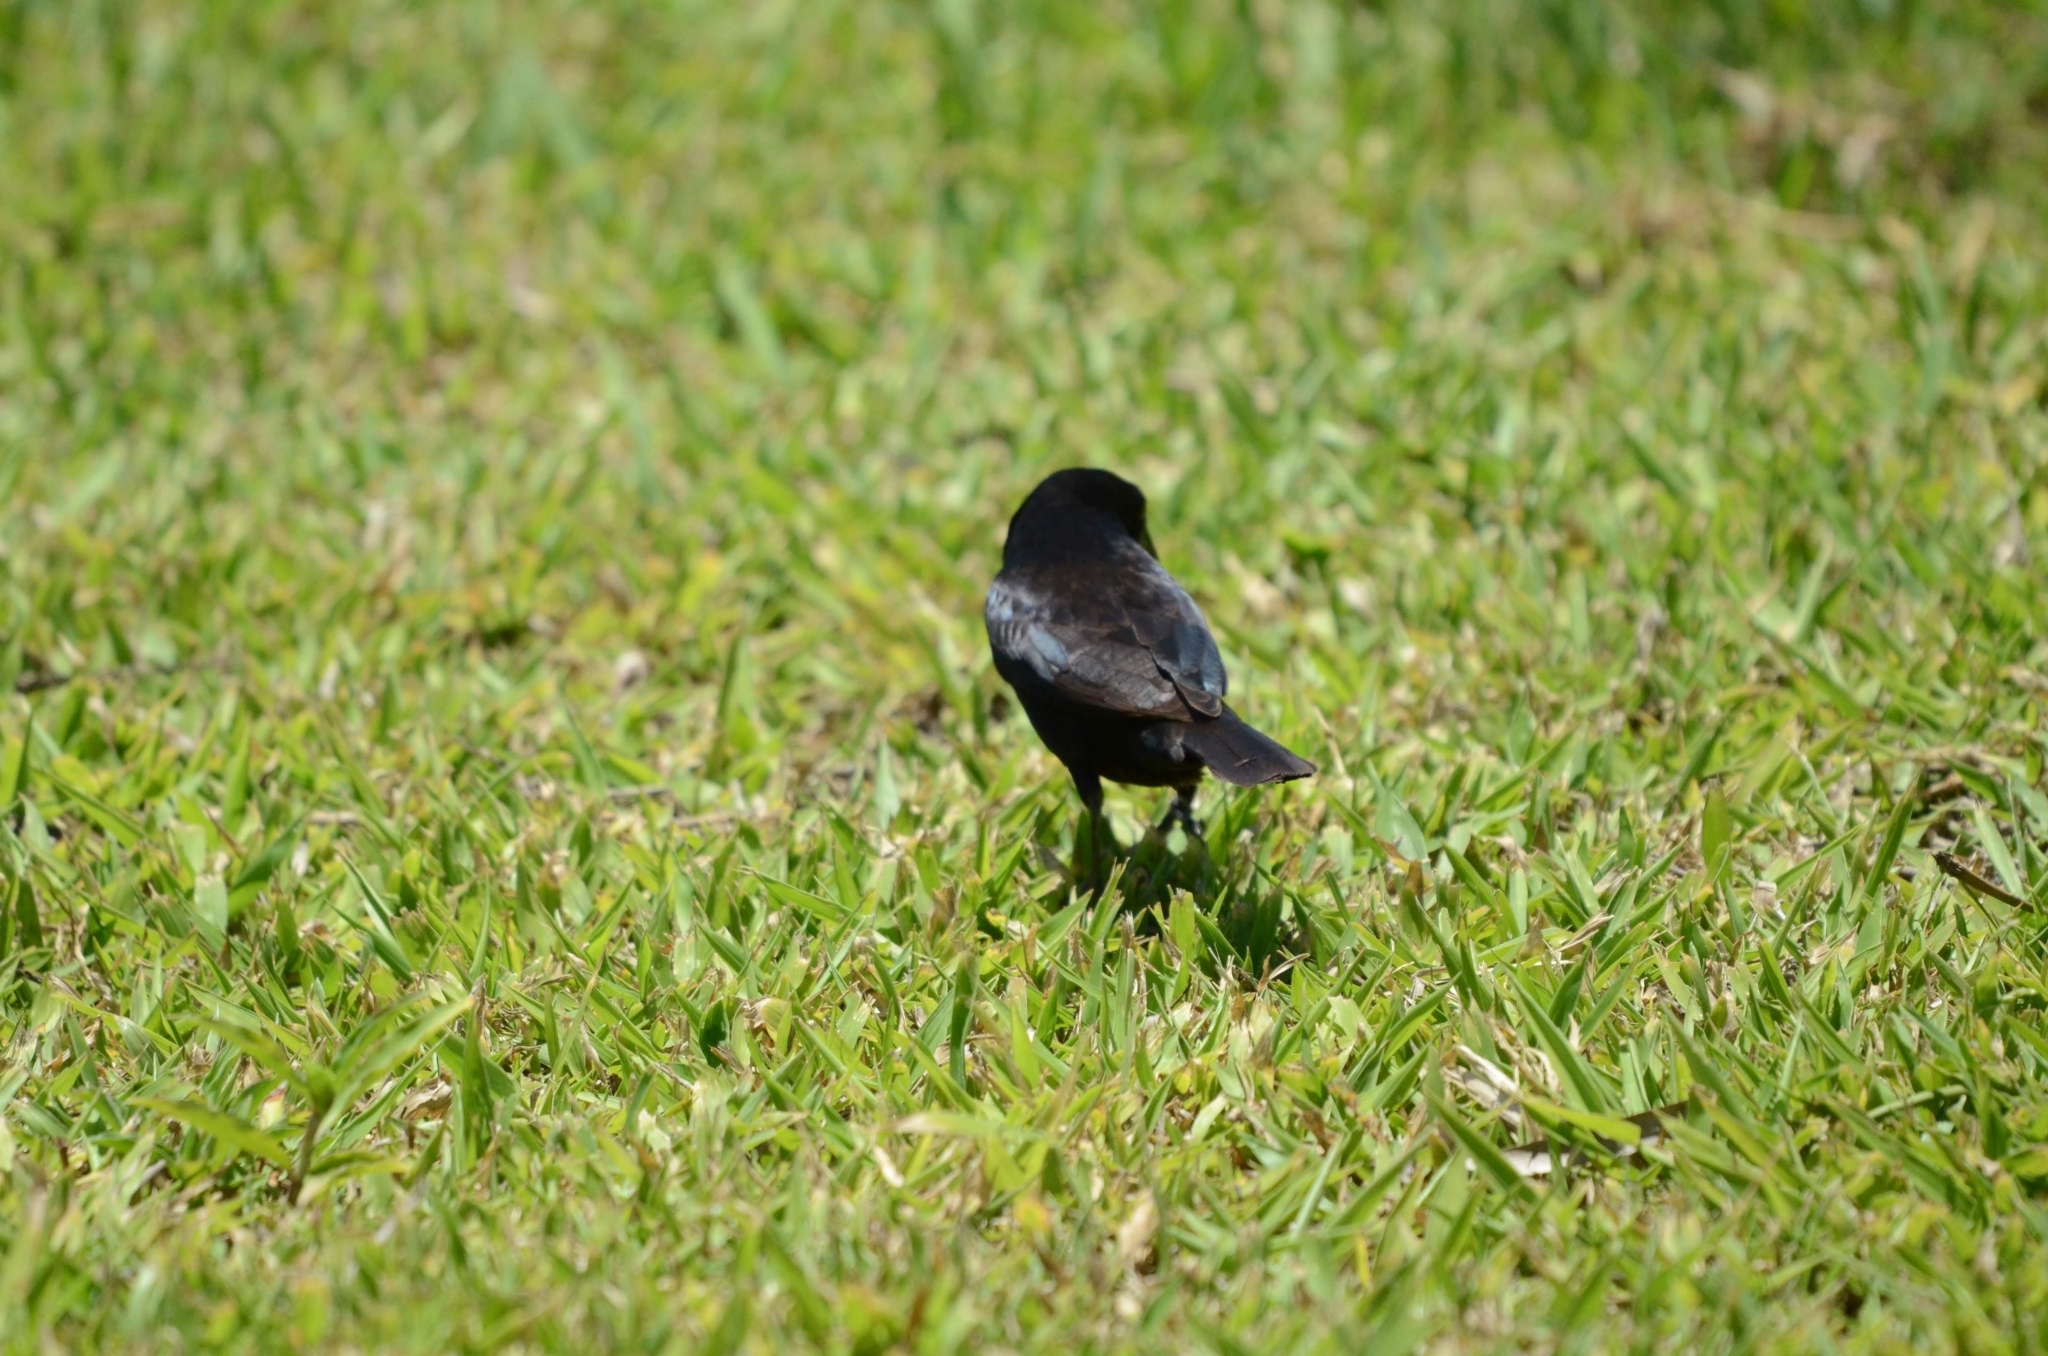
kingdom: Animalia
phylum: Chordata
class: Aves
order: Passeriformes
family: Icteridae
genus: Molothrus
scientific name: Molothrus aeneus
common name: Bronzed cowbird
